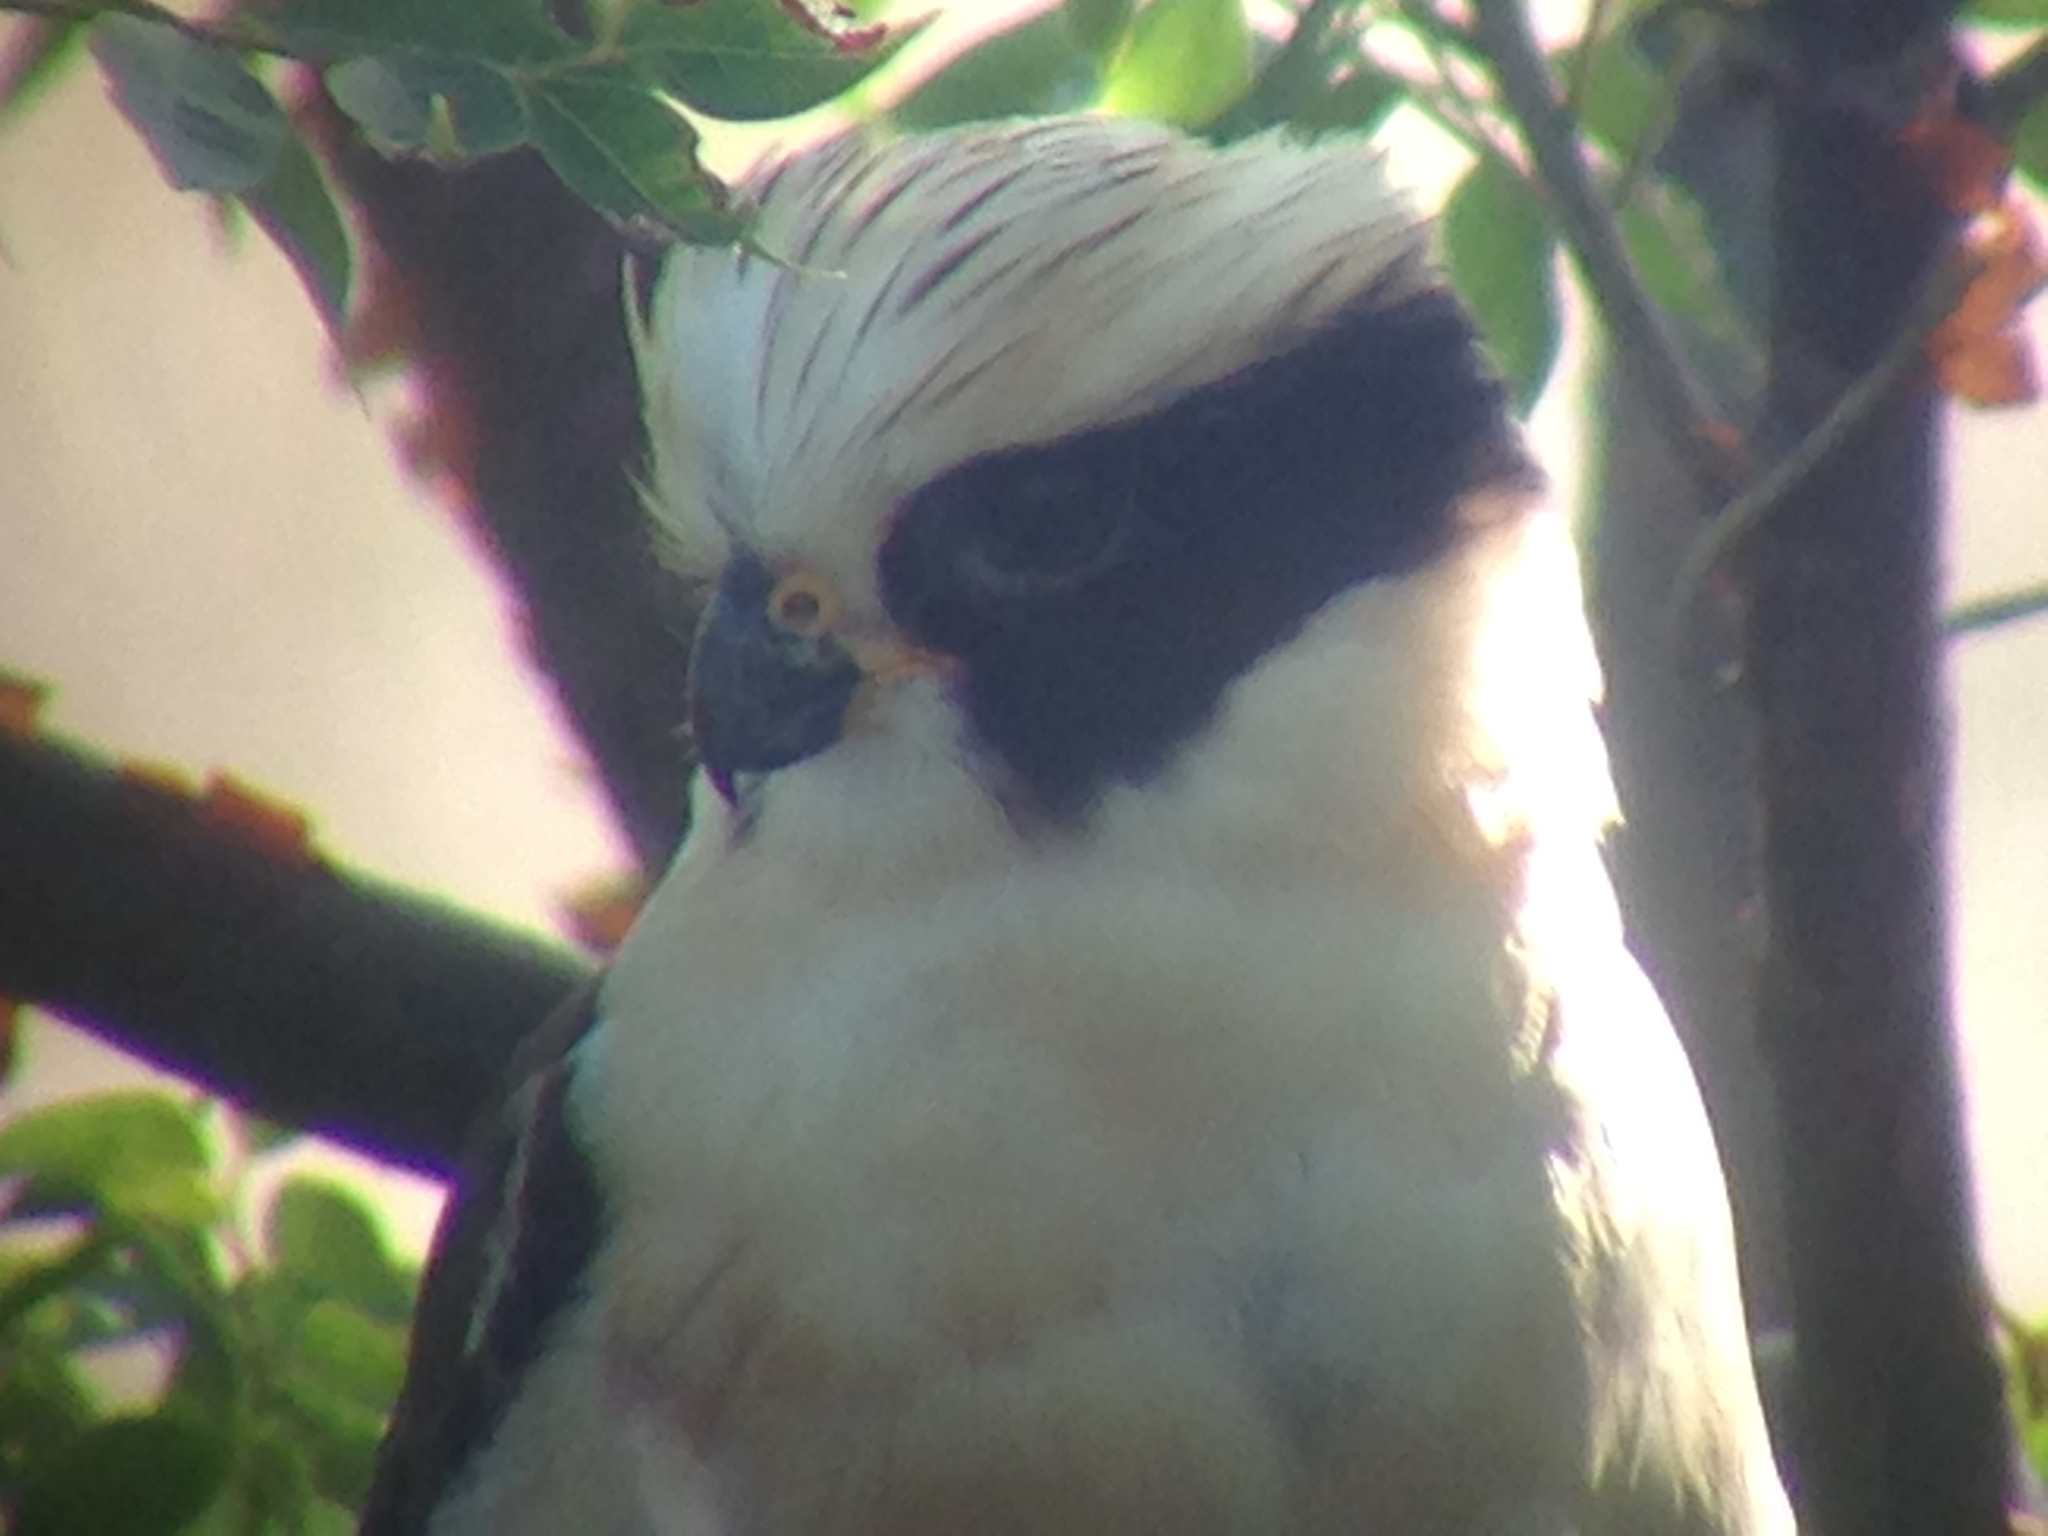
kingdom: Animalia
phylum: Chordata
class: Aves
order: Falconiformes
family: Falconidae
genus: Herpetotheres
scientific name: Herpetotheres cachinnans
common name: Laughing falcon
